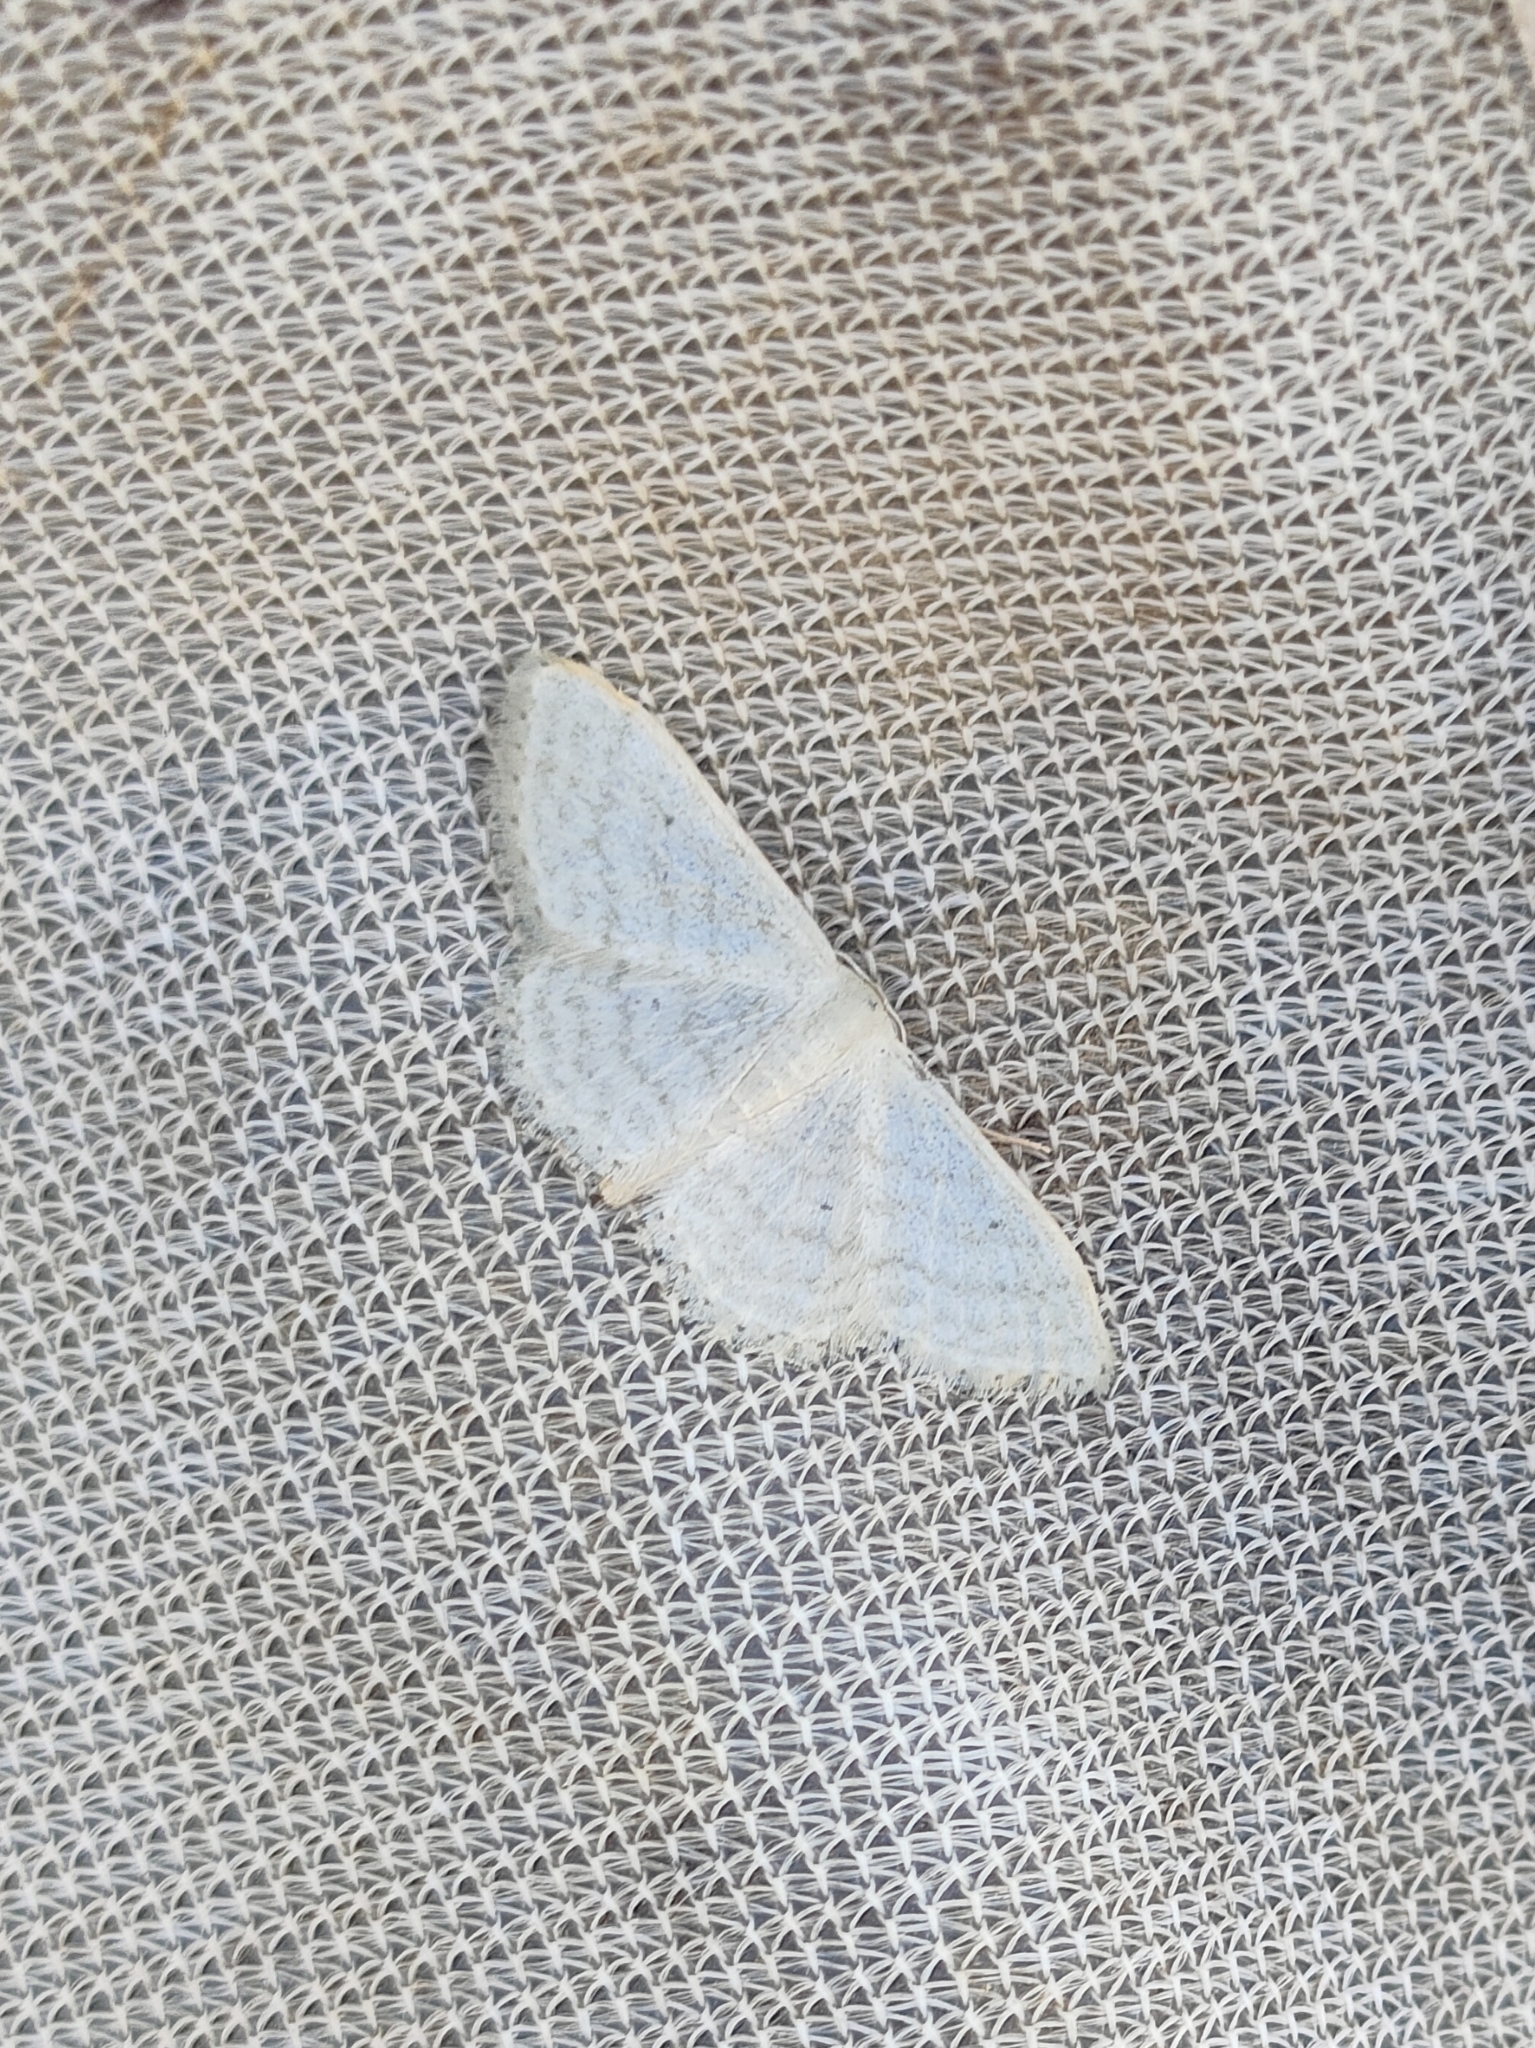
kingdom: Animalia
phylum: Arthropoda
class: Insecta
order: Lepidoptera
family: Geometridae
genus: Idaea
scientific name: Idaea subsericeata
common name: Satin wave
